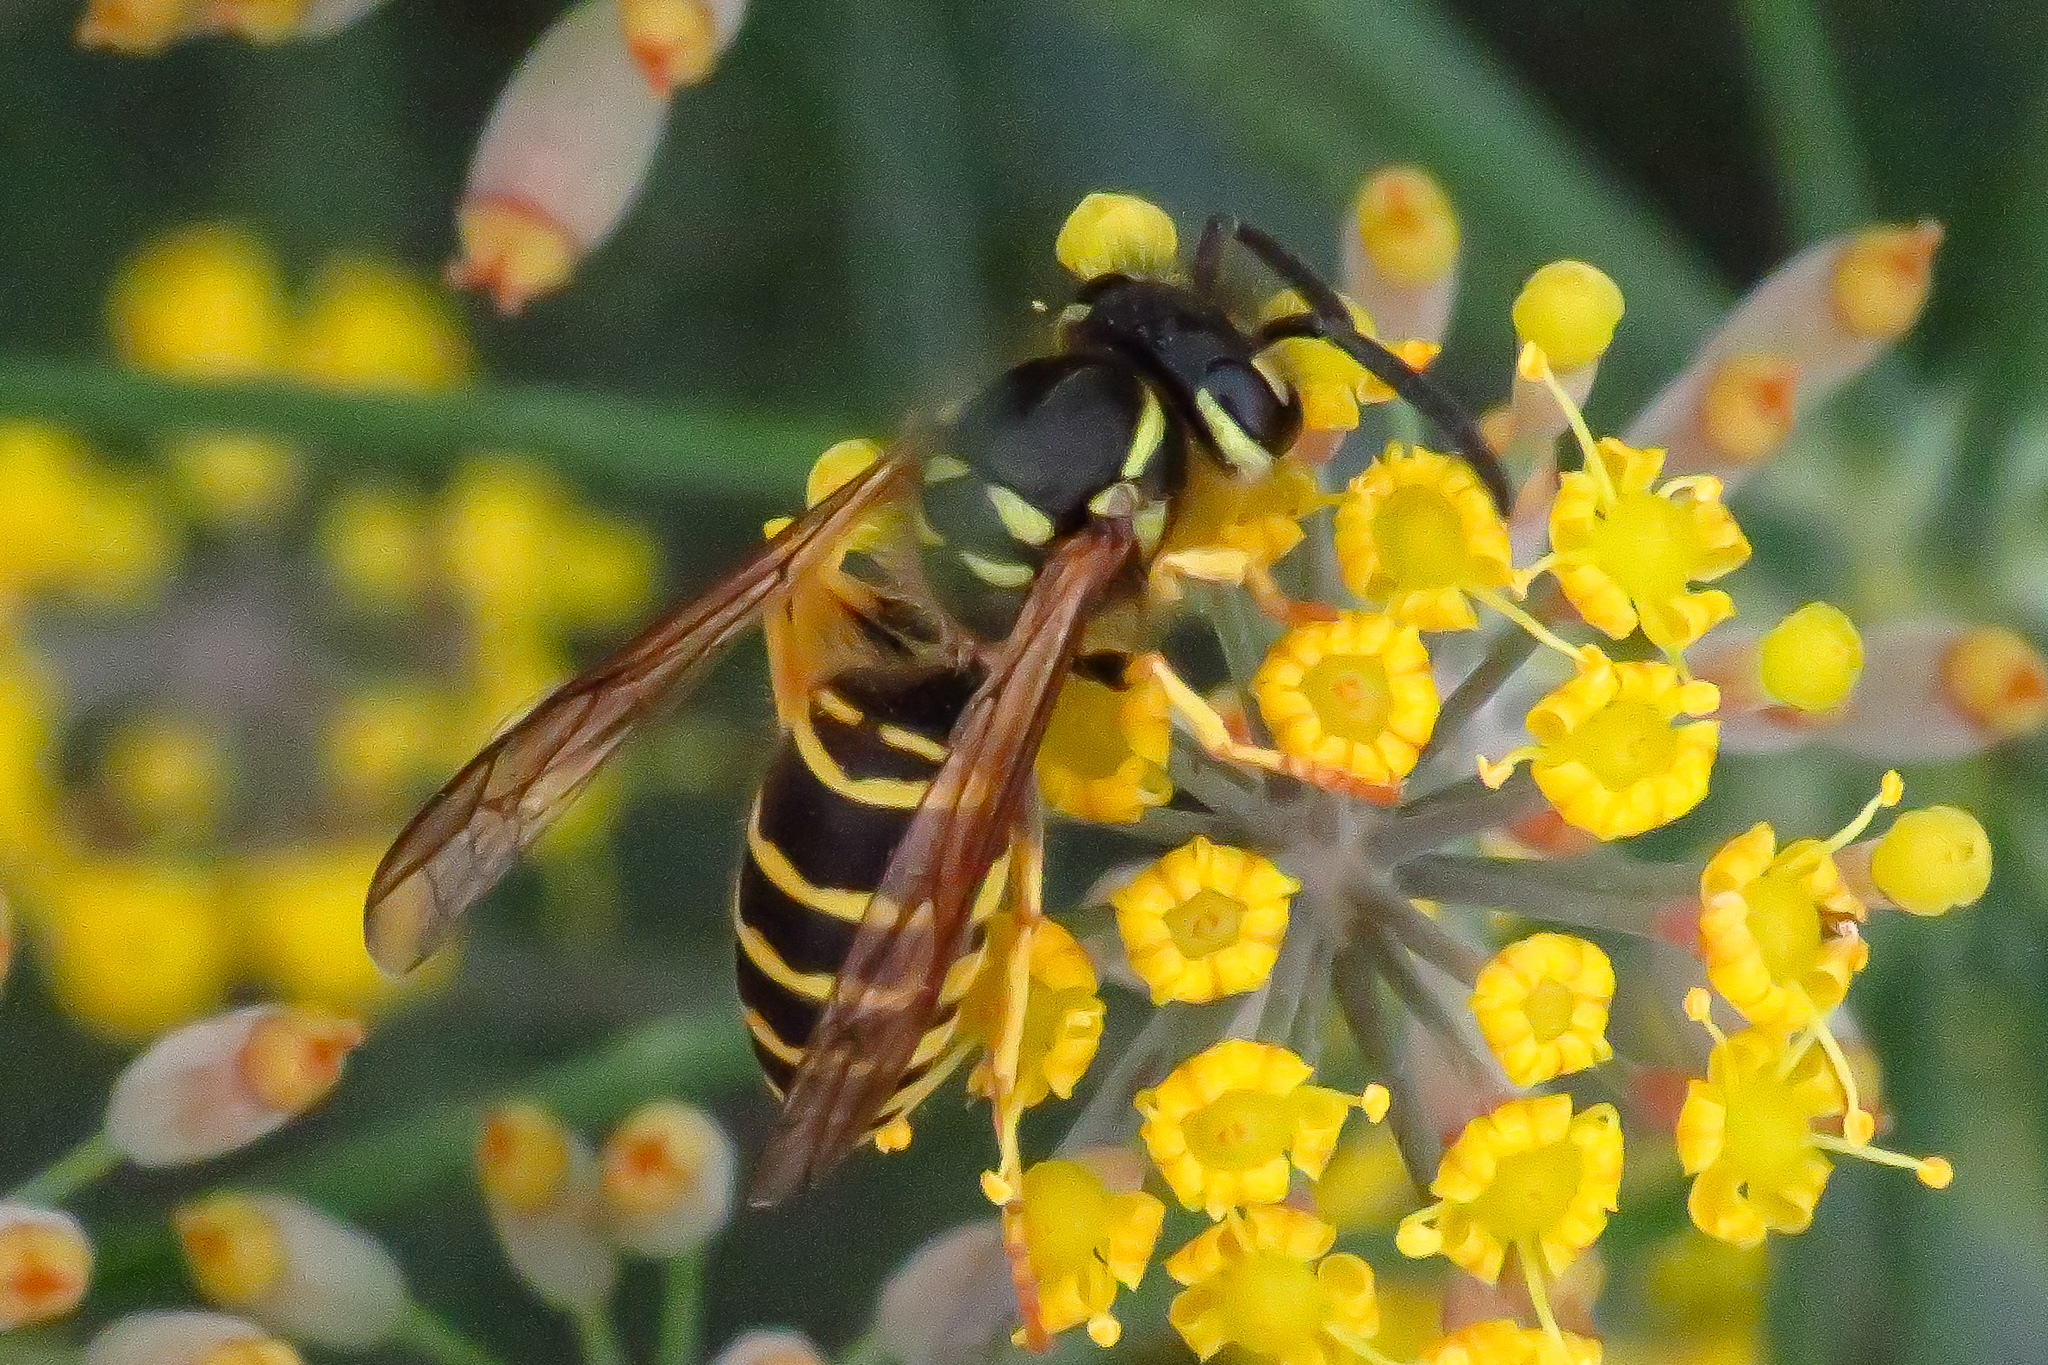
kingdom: Animalia
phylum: Arthropoda
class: Insecta
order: Hymenoptera
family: Vespidae
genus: Vespula
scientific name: Vespula maculifrons
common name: Eastern yellowjacket
